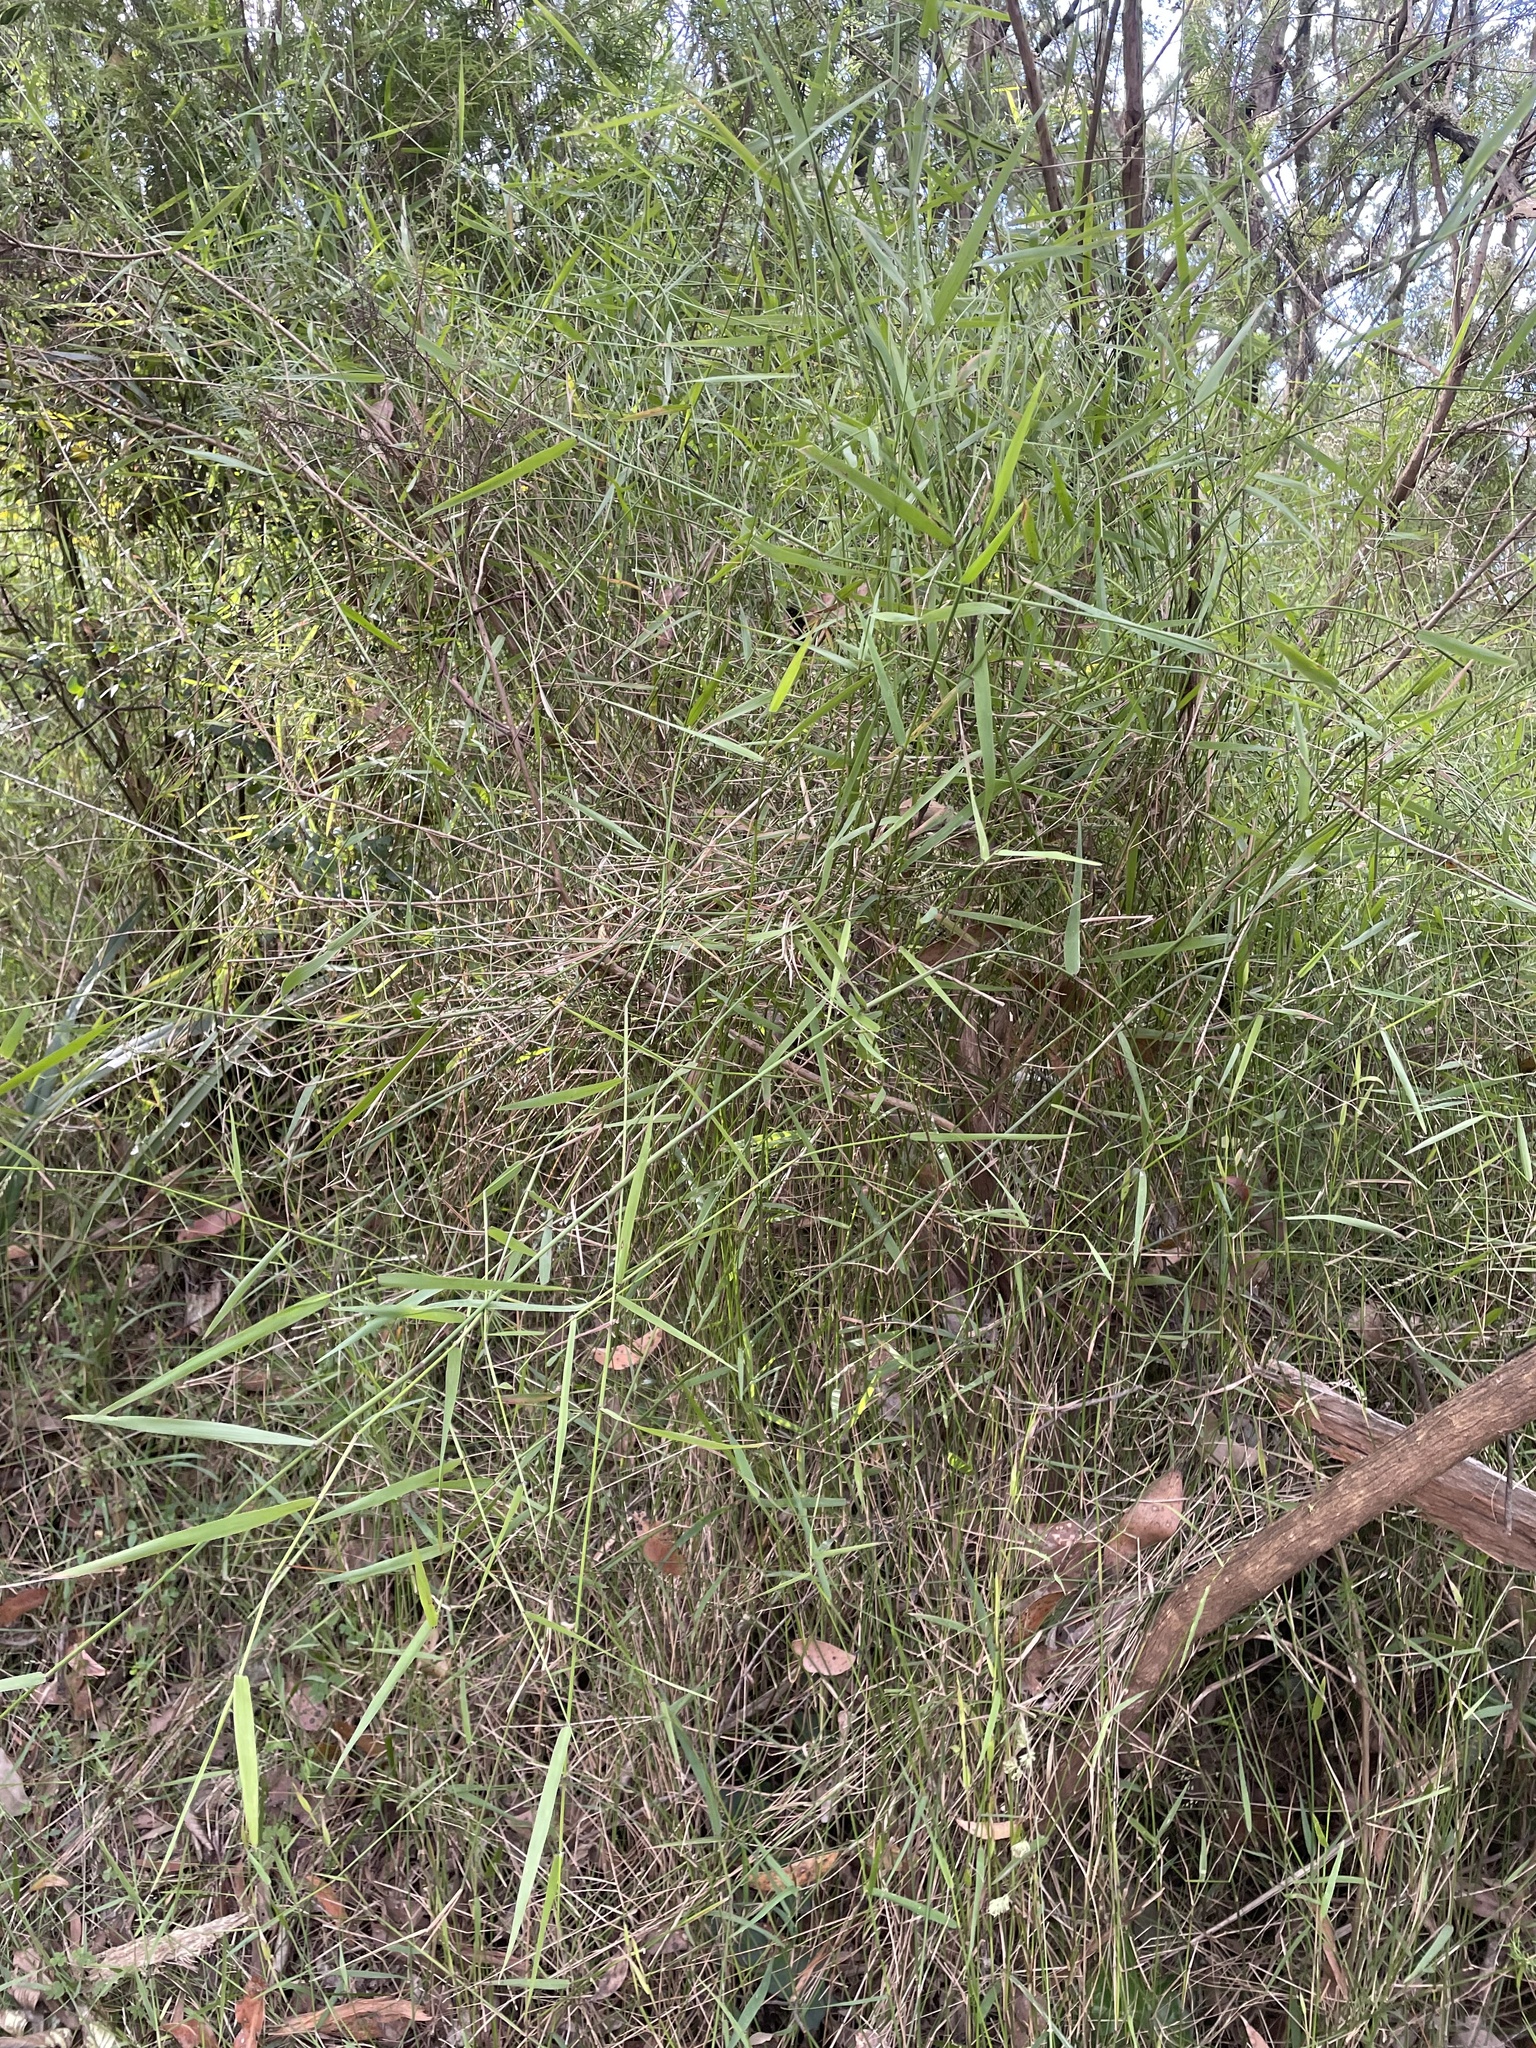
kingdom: Plantae
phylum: Tracheophyta
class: Liliopsida
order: Poales
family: Poaceae
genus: Tetrarrhena
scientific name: Tetrarrhena juncea
